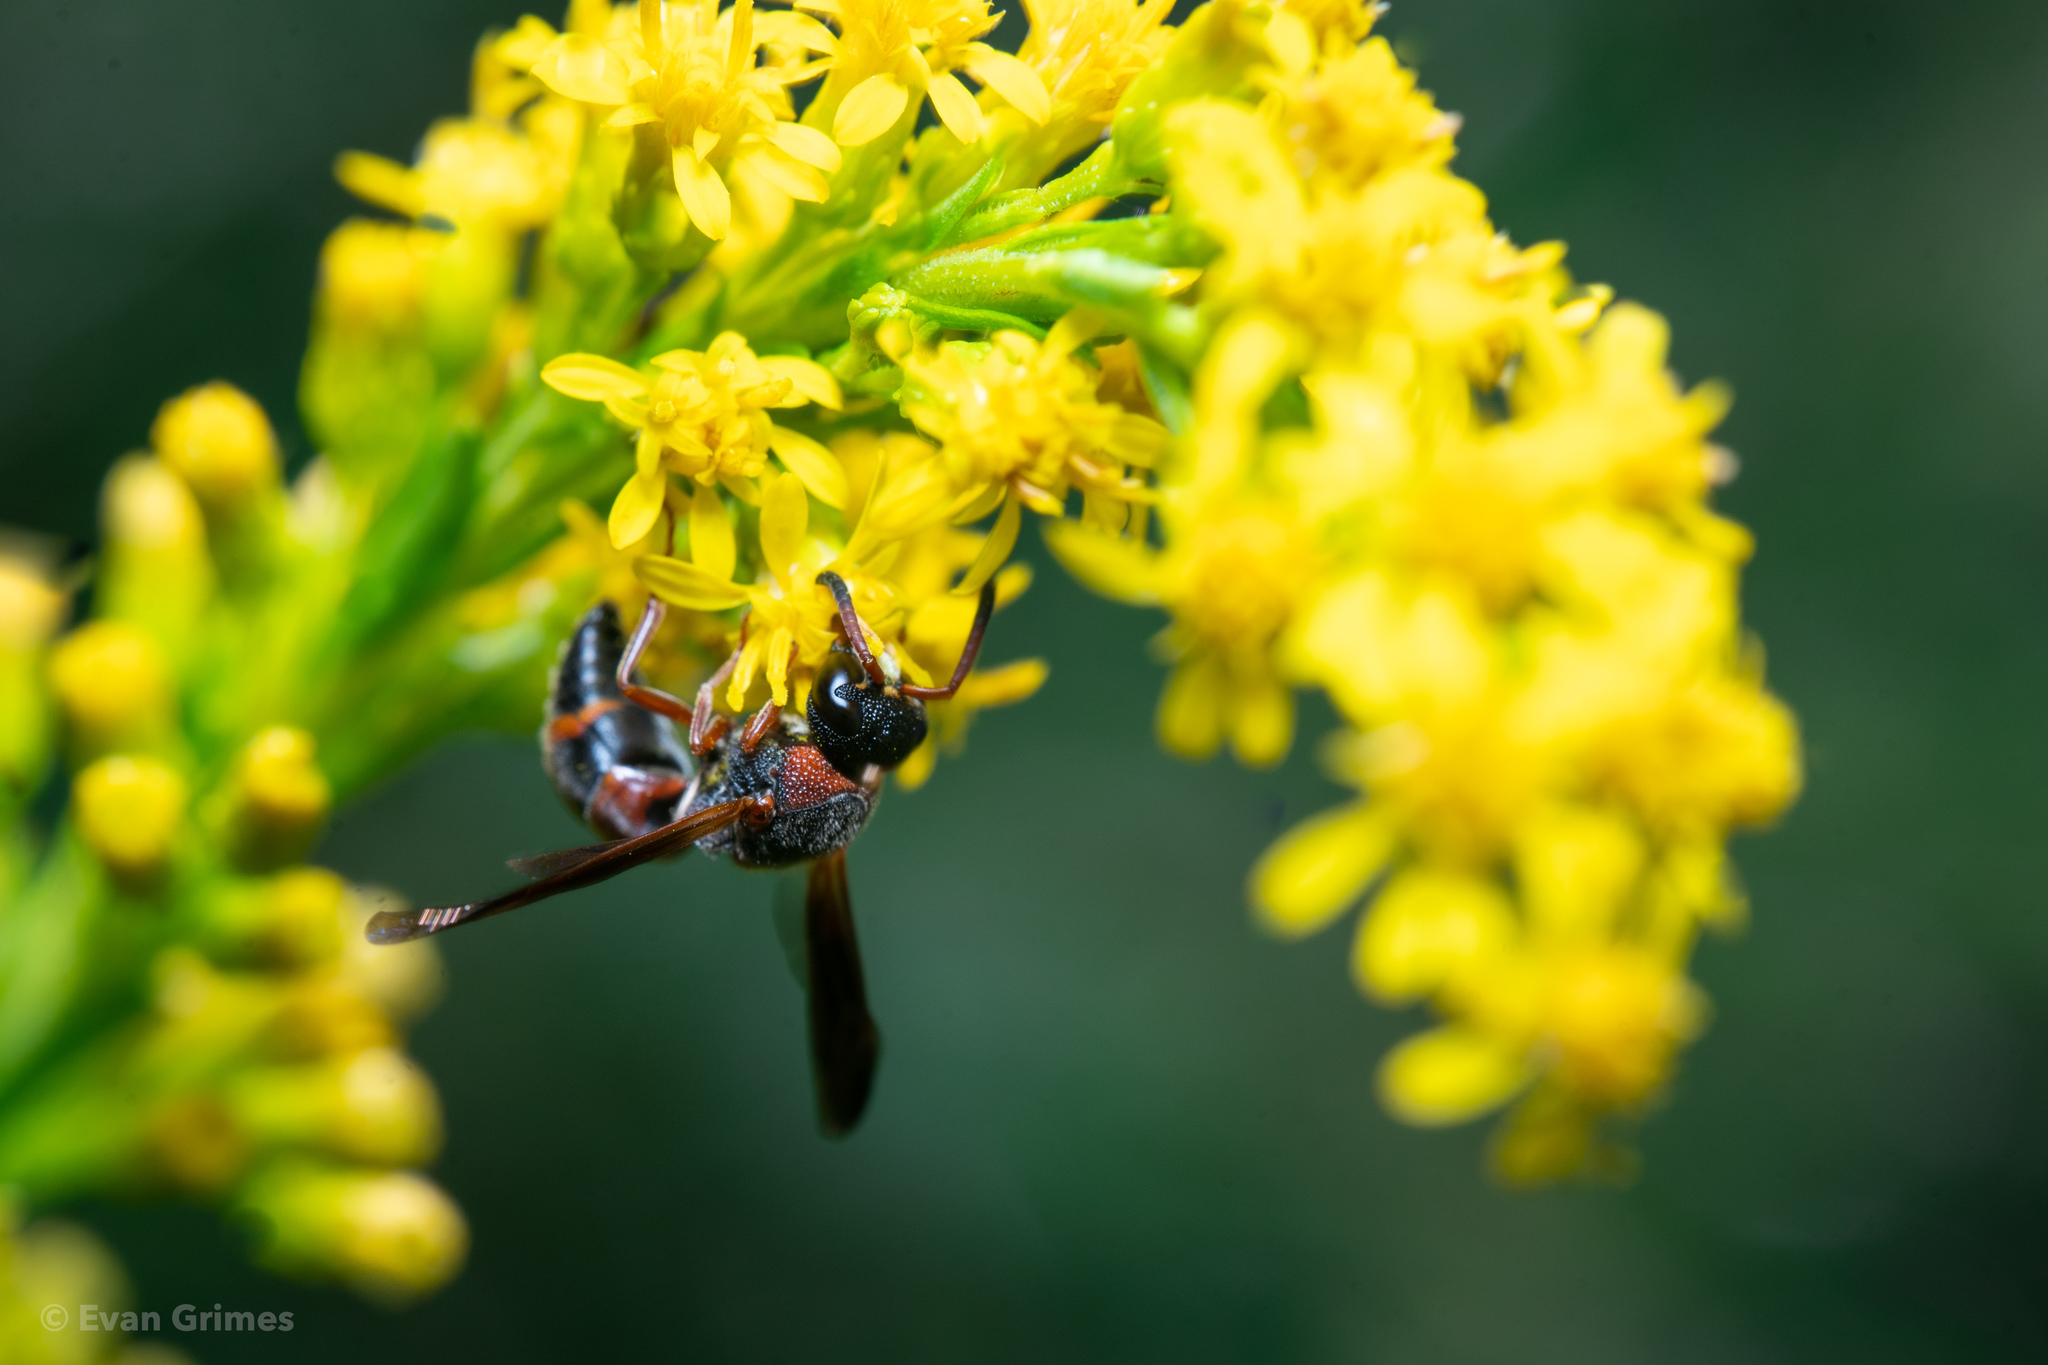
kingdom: Animalia
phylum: Arthropoda
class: Insecta
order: Hymenoptera
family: Eumenidae
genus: Pachodynerus
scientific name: Pachodynerus erynnis
